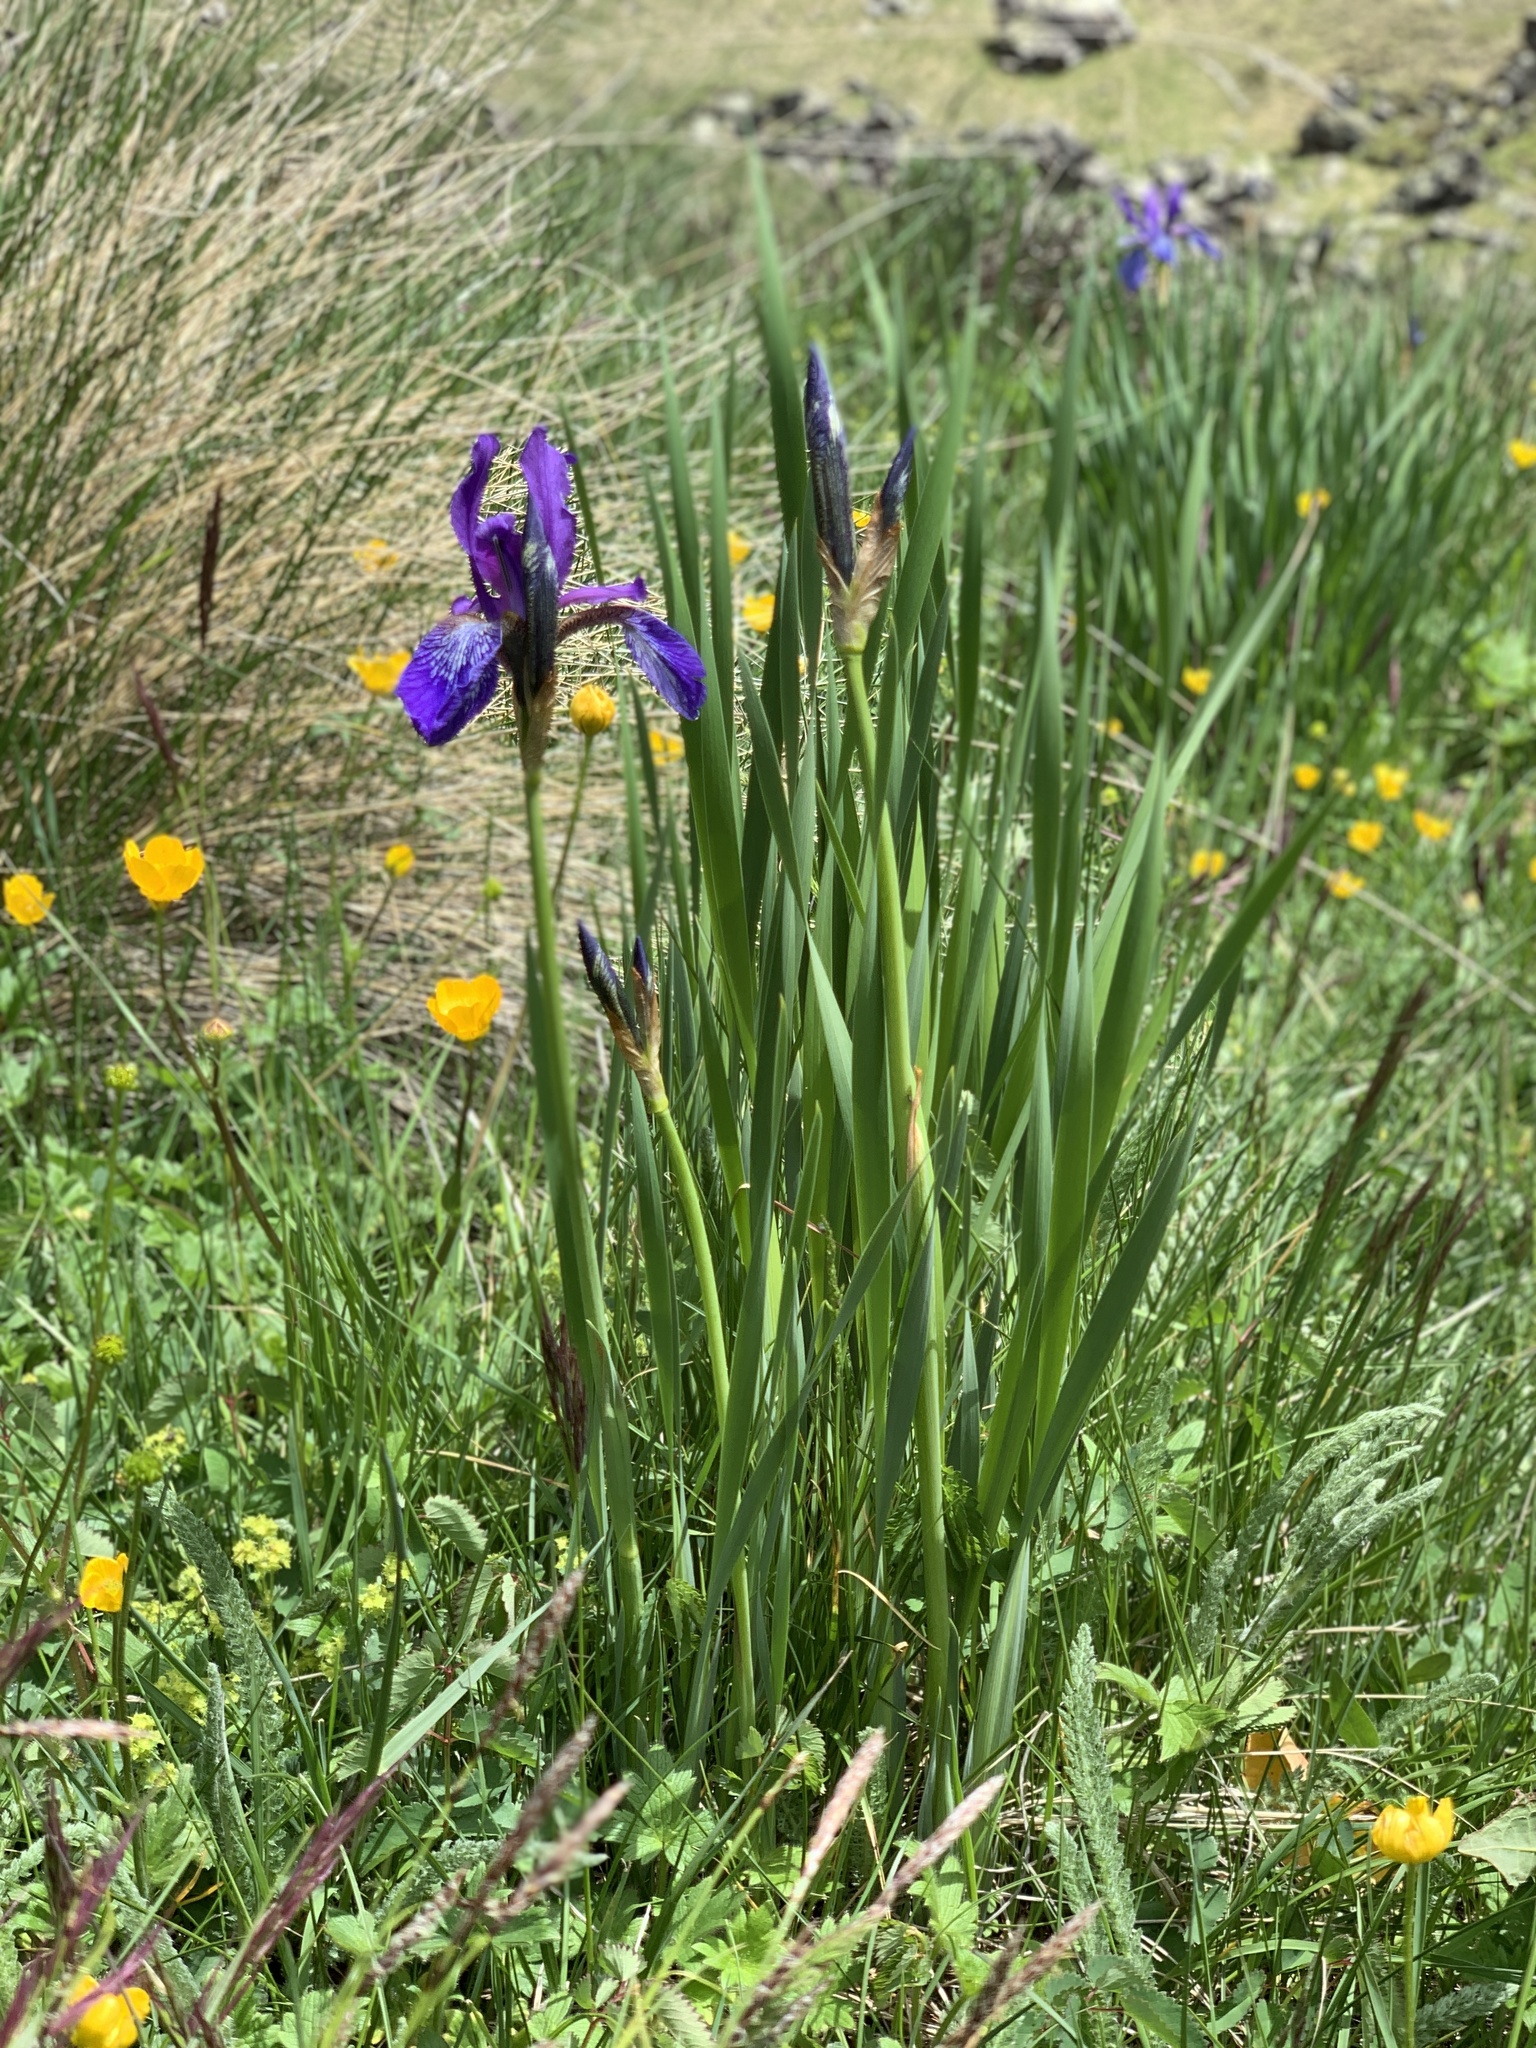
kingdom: Plantae
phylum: Tracheophyta
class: Liliopsida
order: Asparagales
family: Iridaceae
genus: Iris
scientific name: Iris sibirica
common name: Siberian iris
